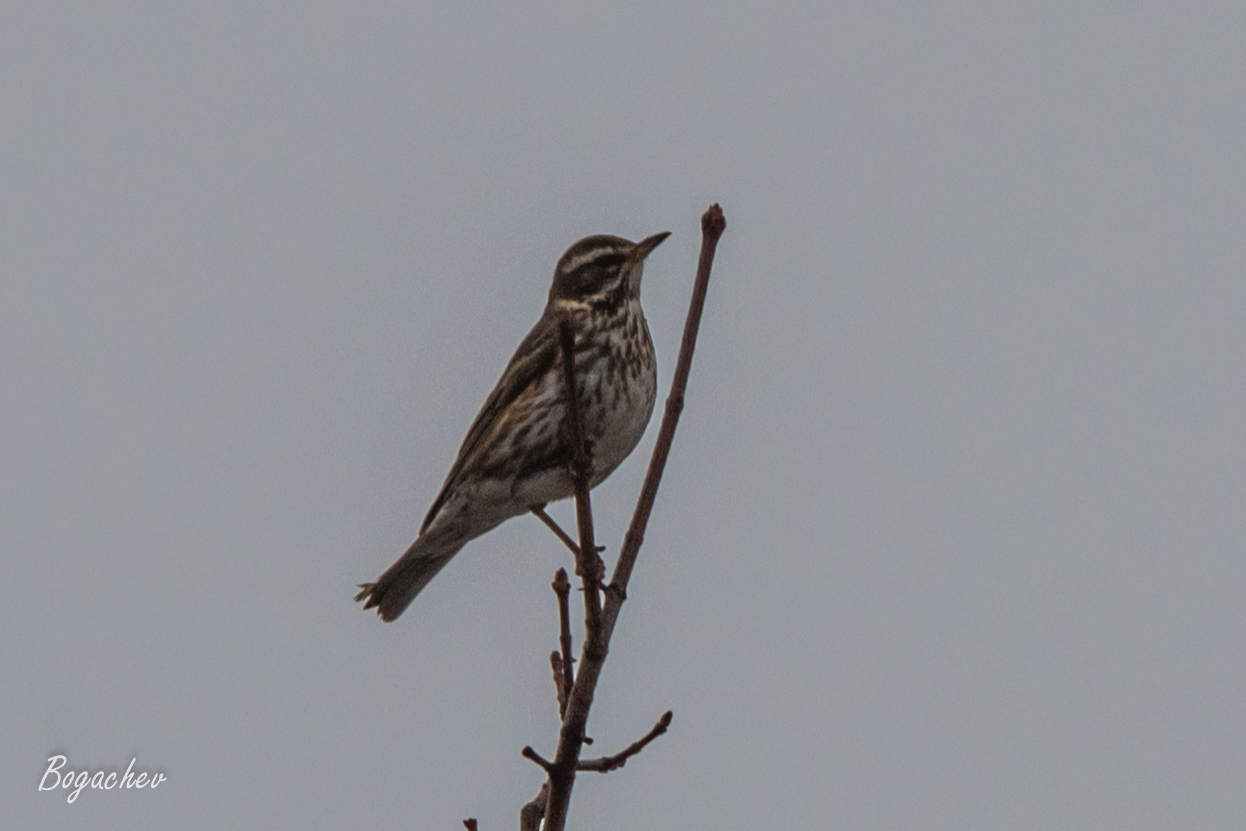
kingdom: Animalia
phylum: Chordata
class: Aves
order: Passeriformes
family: Turdidae
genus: Turdus
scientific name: Turdus iliacus
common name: Redwing
